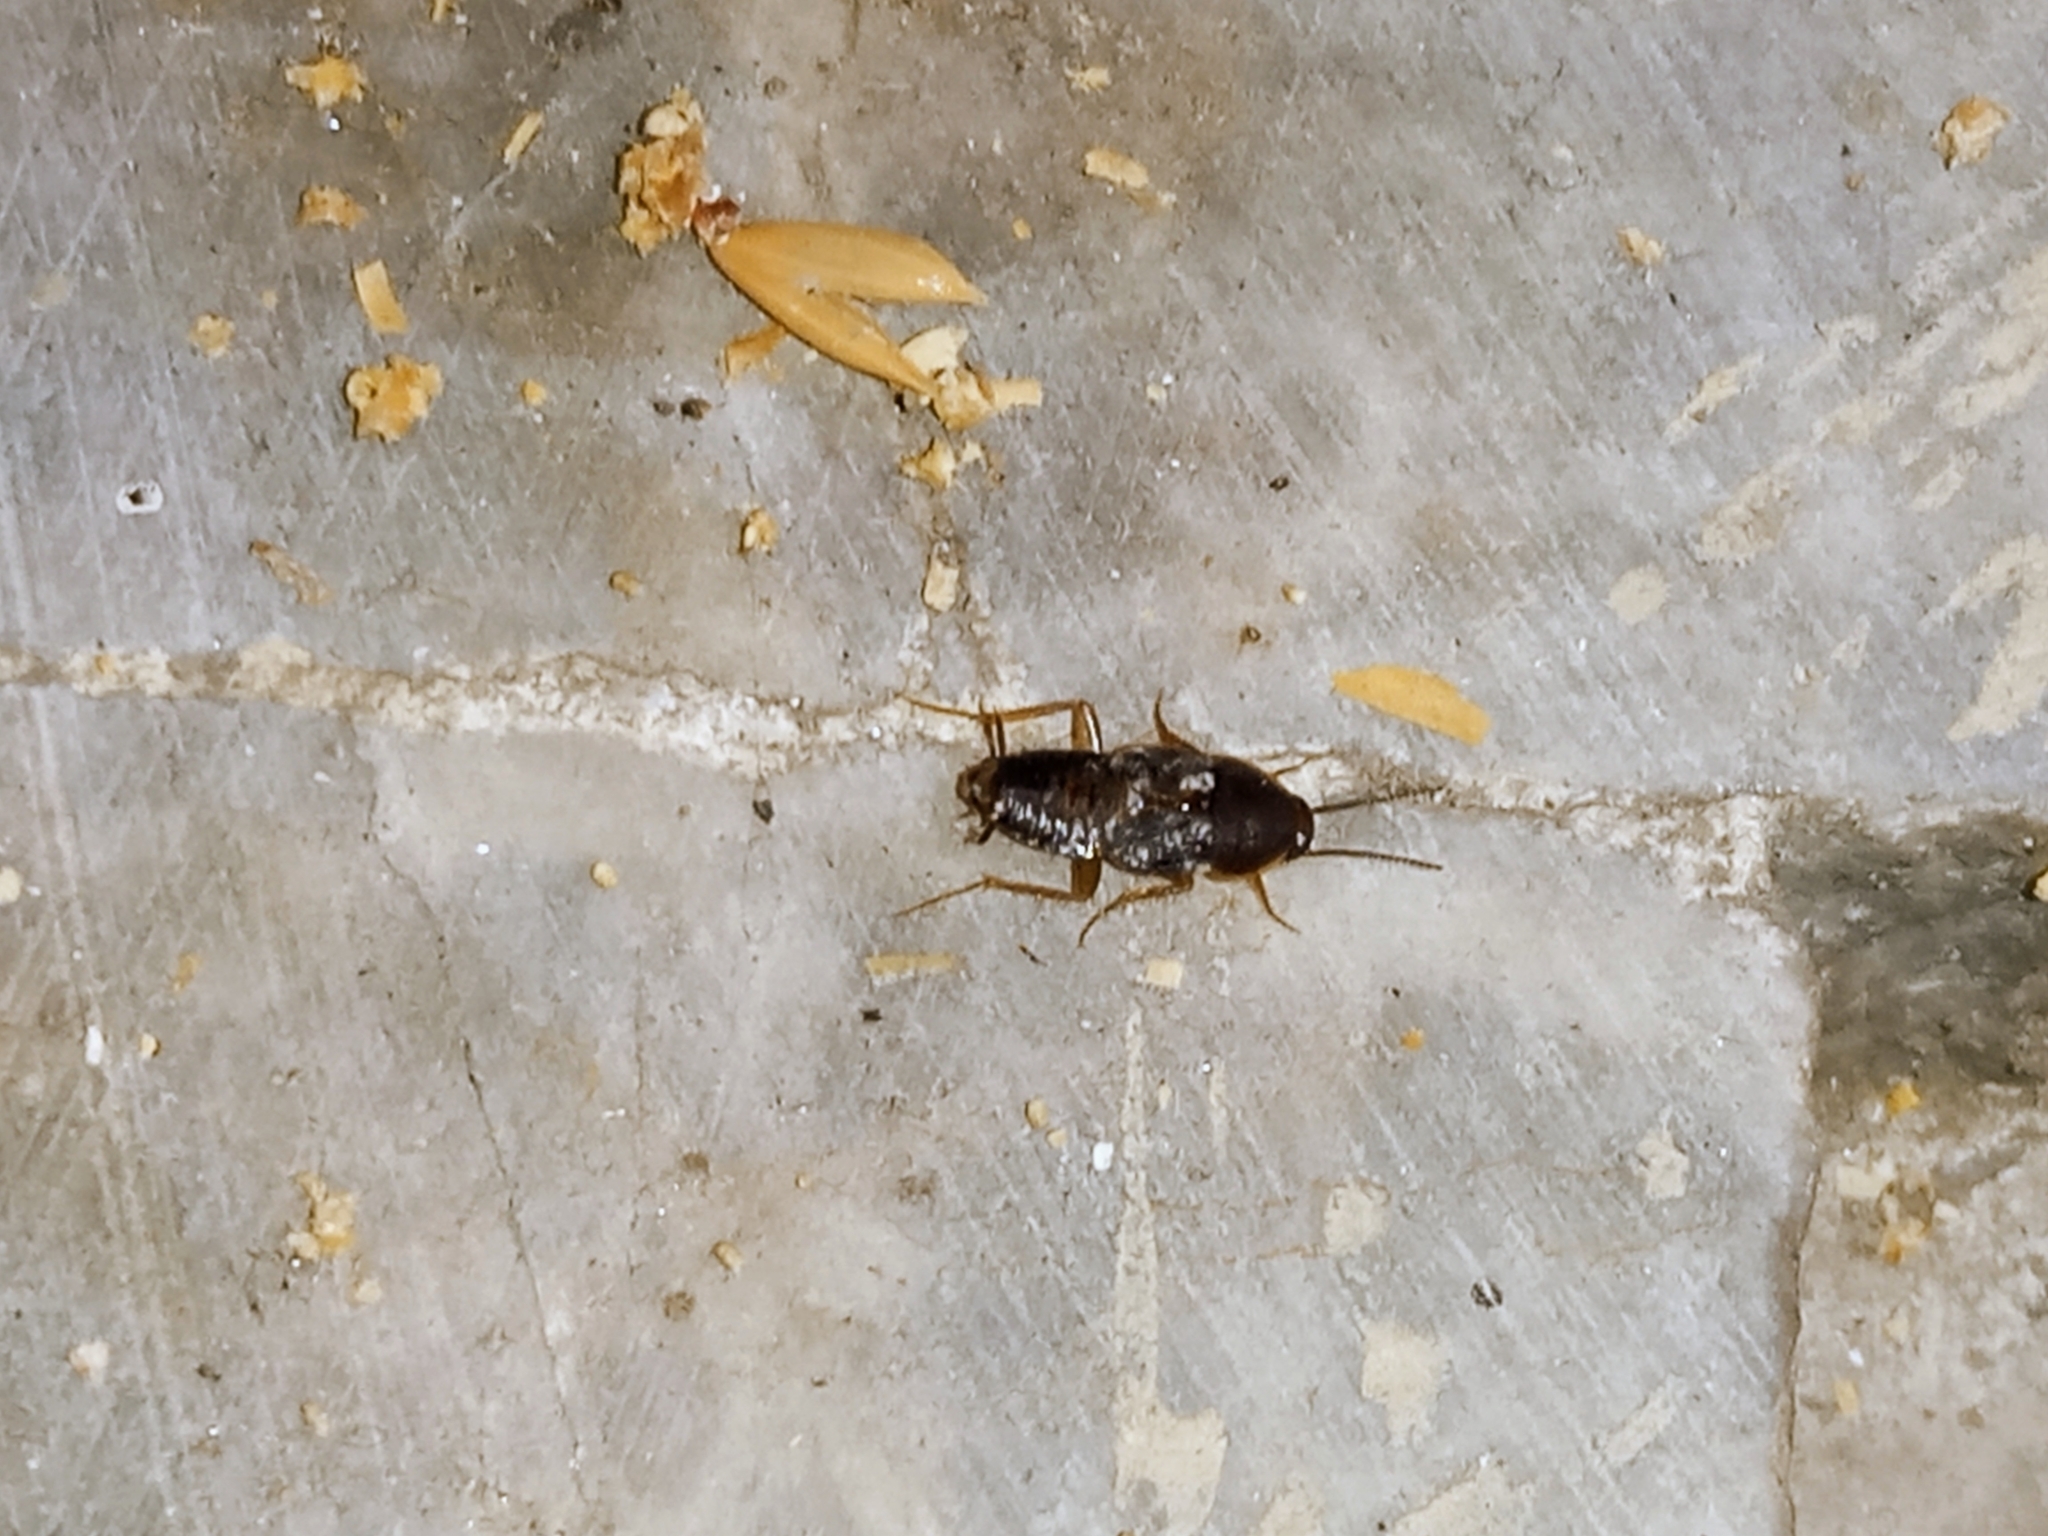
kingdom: Animalia
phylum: Arthropoda
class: Insecta
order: Blattodea
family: Corydiidae
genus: Myrmecoblatta
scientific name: Myrmecoblatta hebardi
